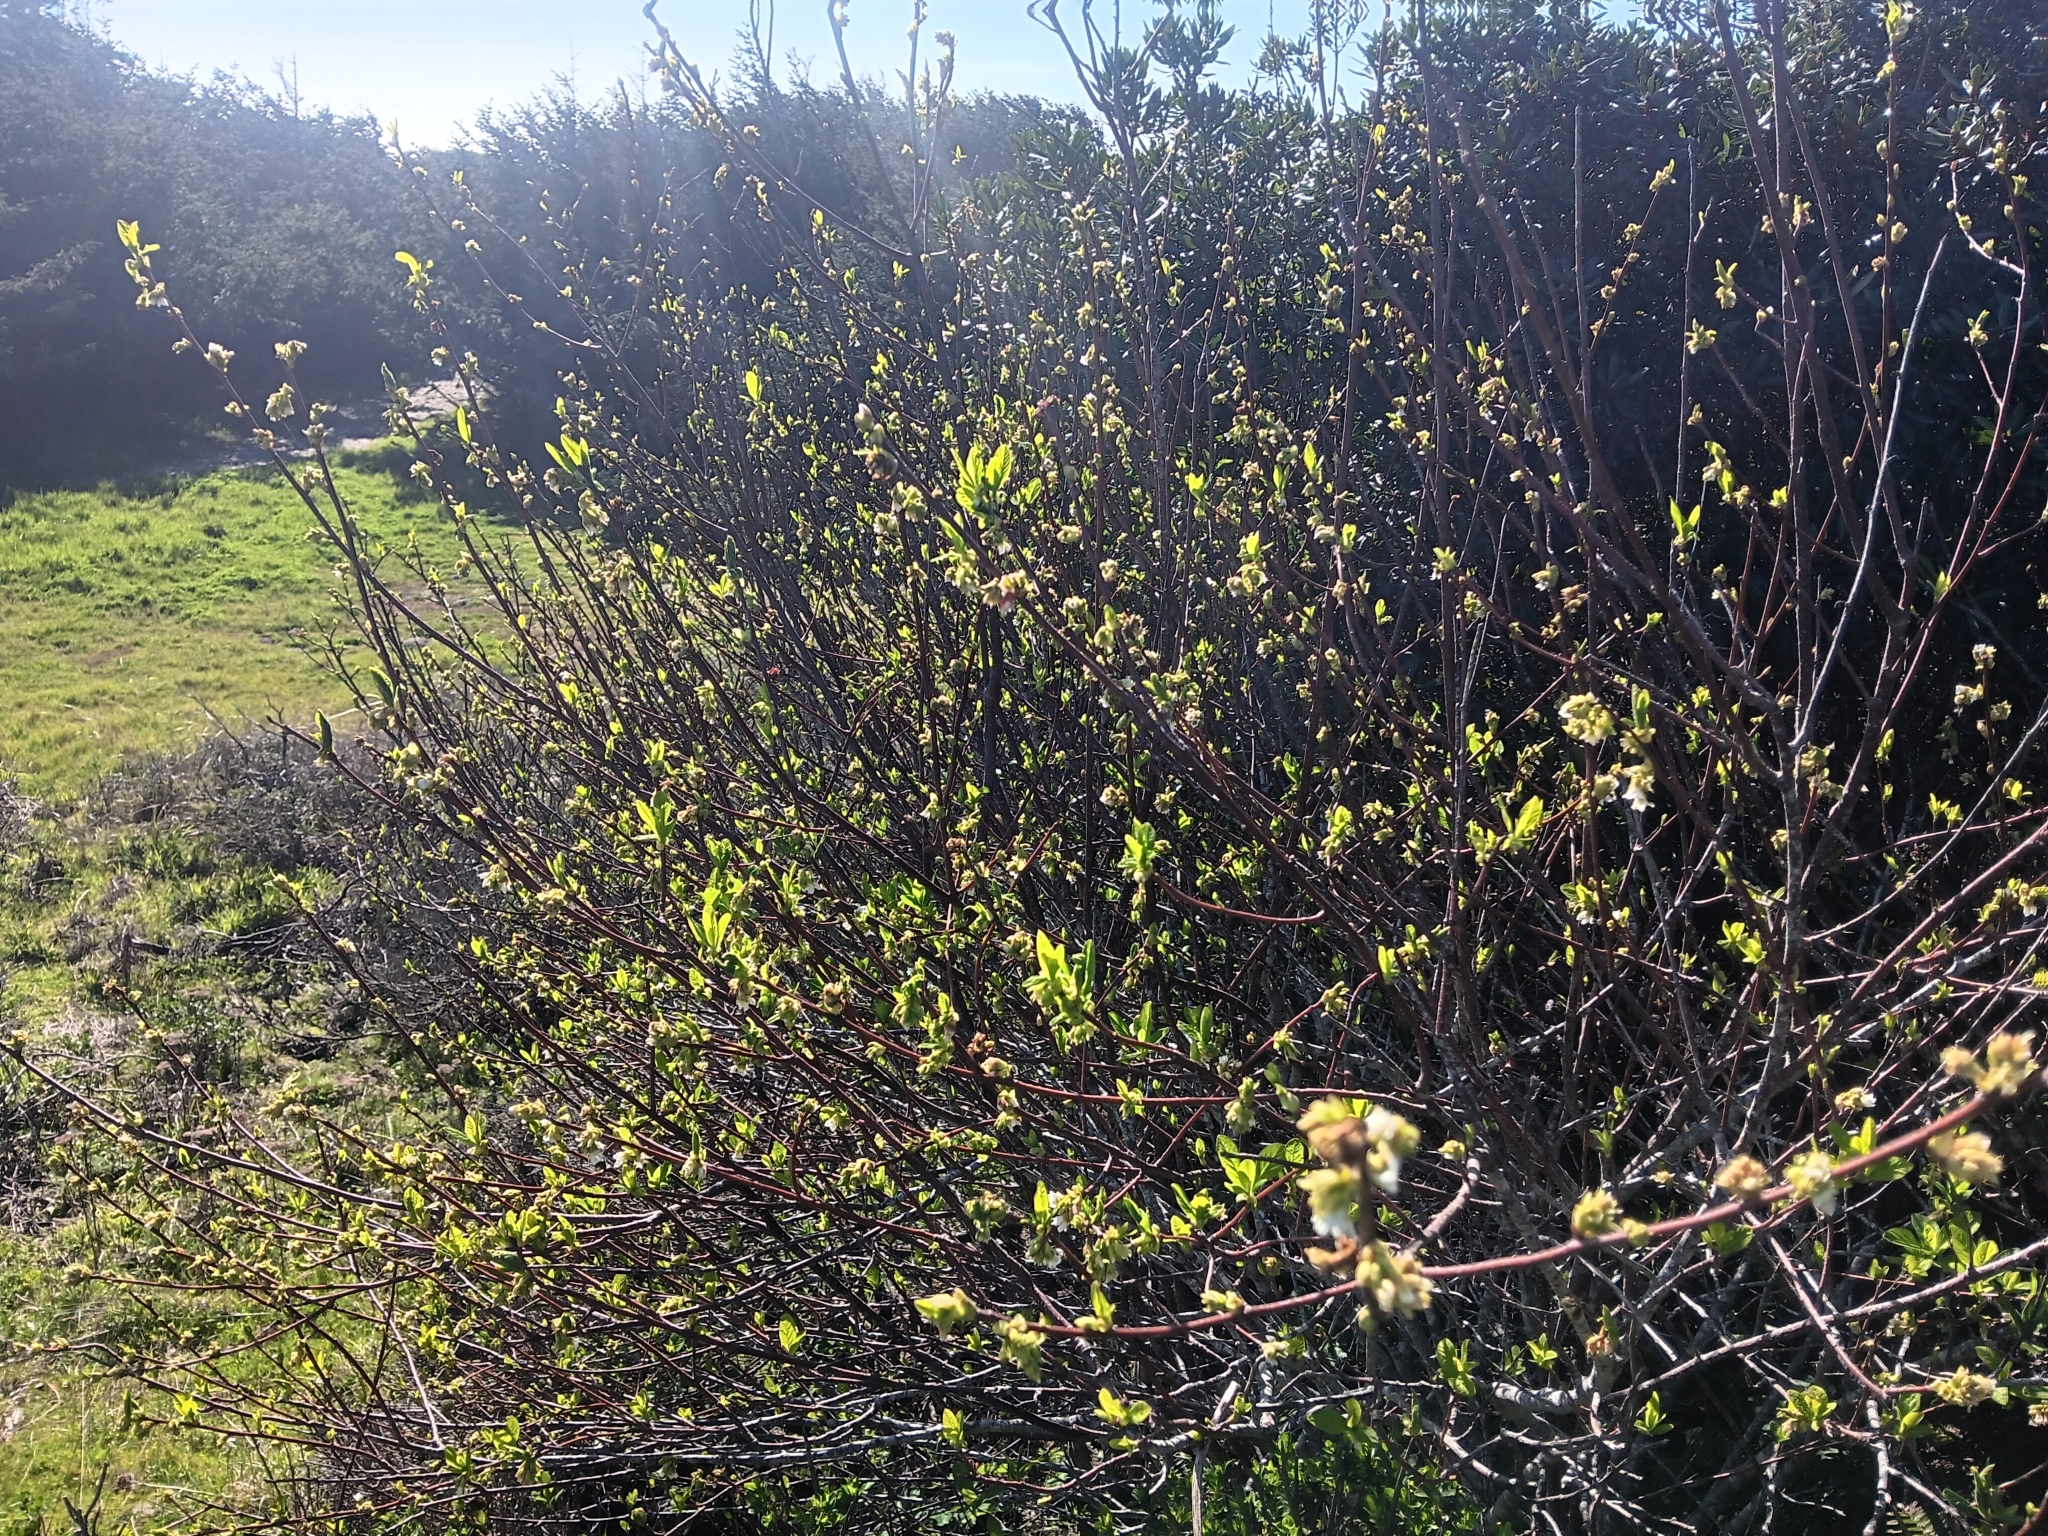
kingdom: Plantae
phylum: Tracheophyta
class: Magnoliopsida
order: Rosales
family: Rosaceae
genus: Oemleria
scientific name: Oemleria cerasiformis
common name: Osoberry
